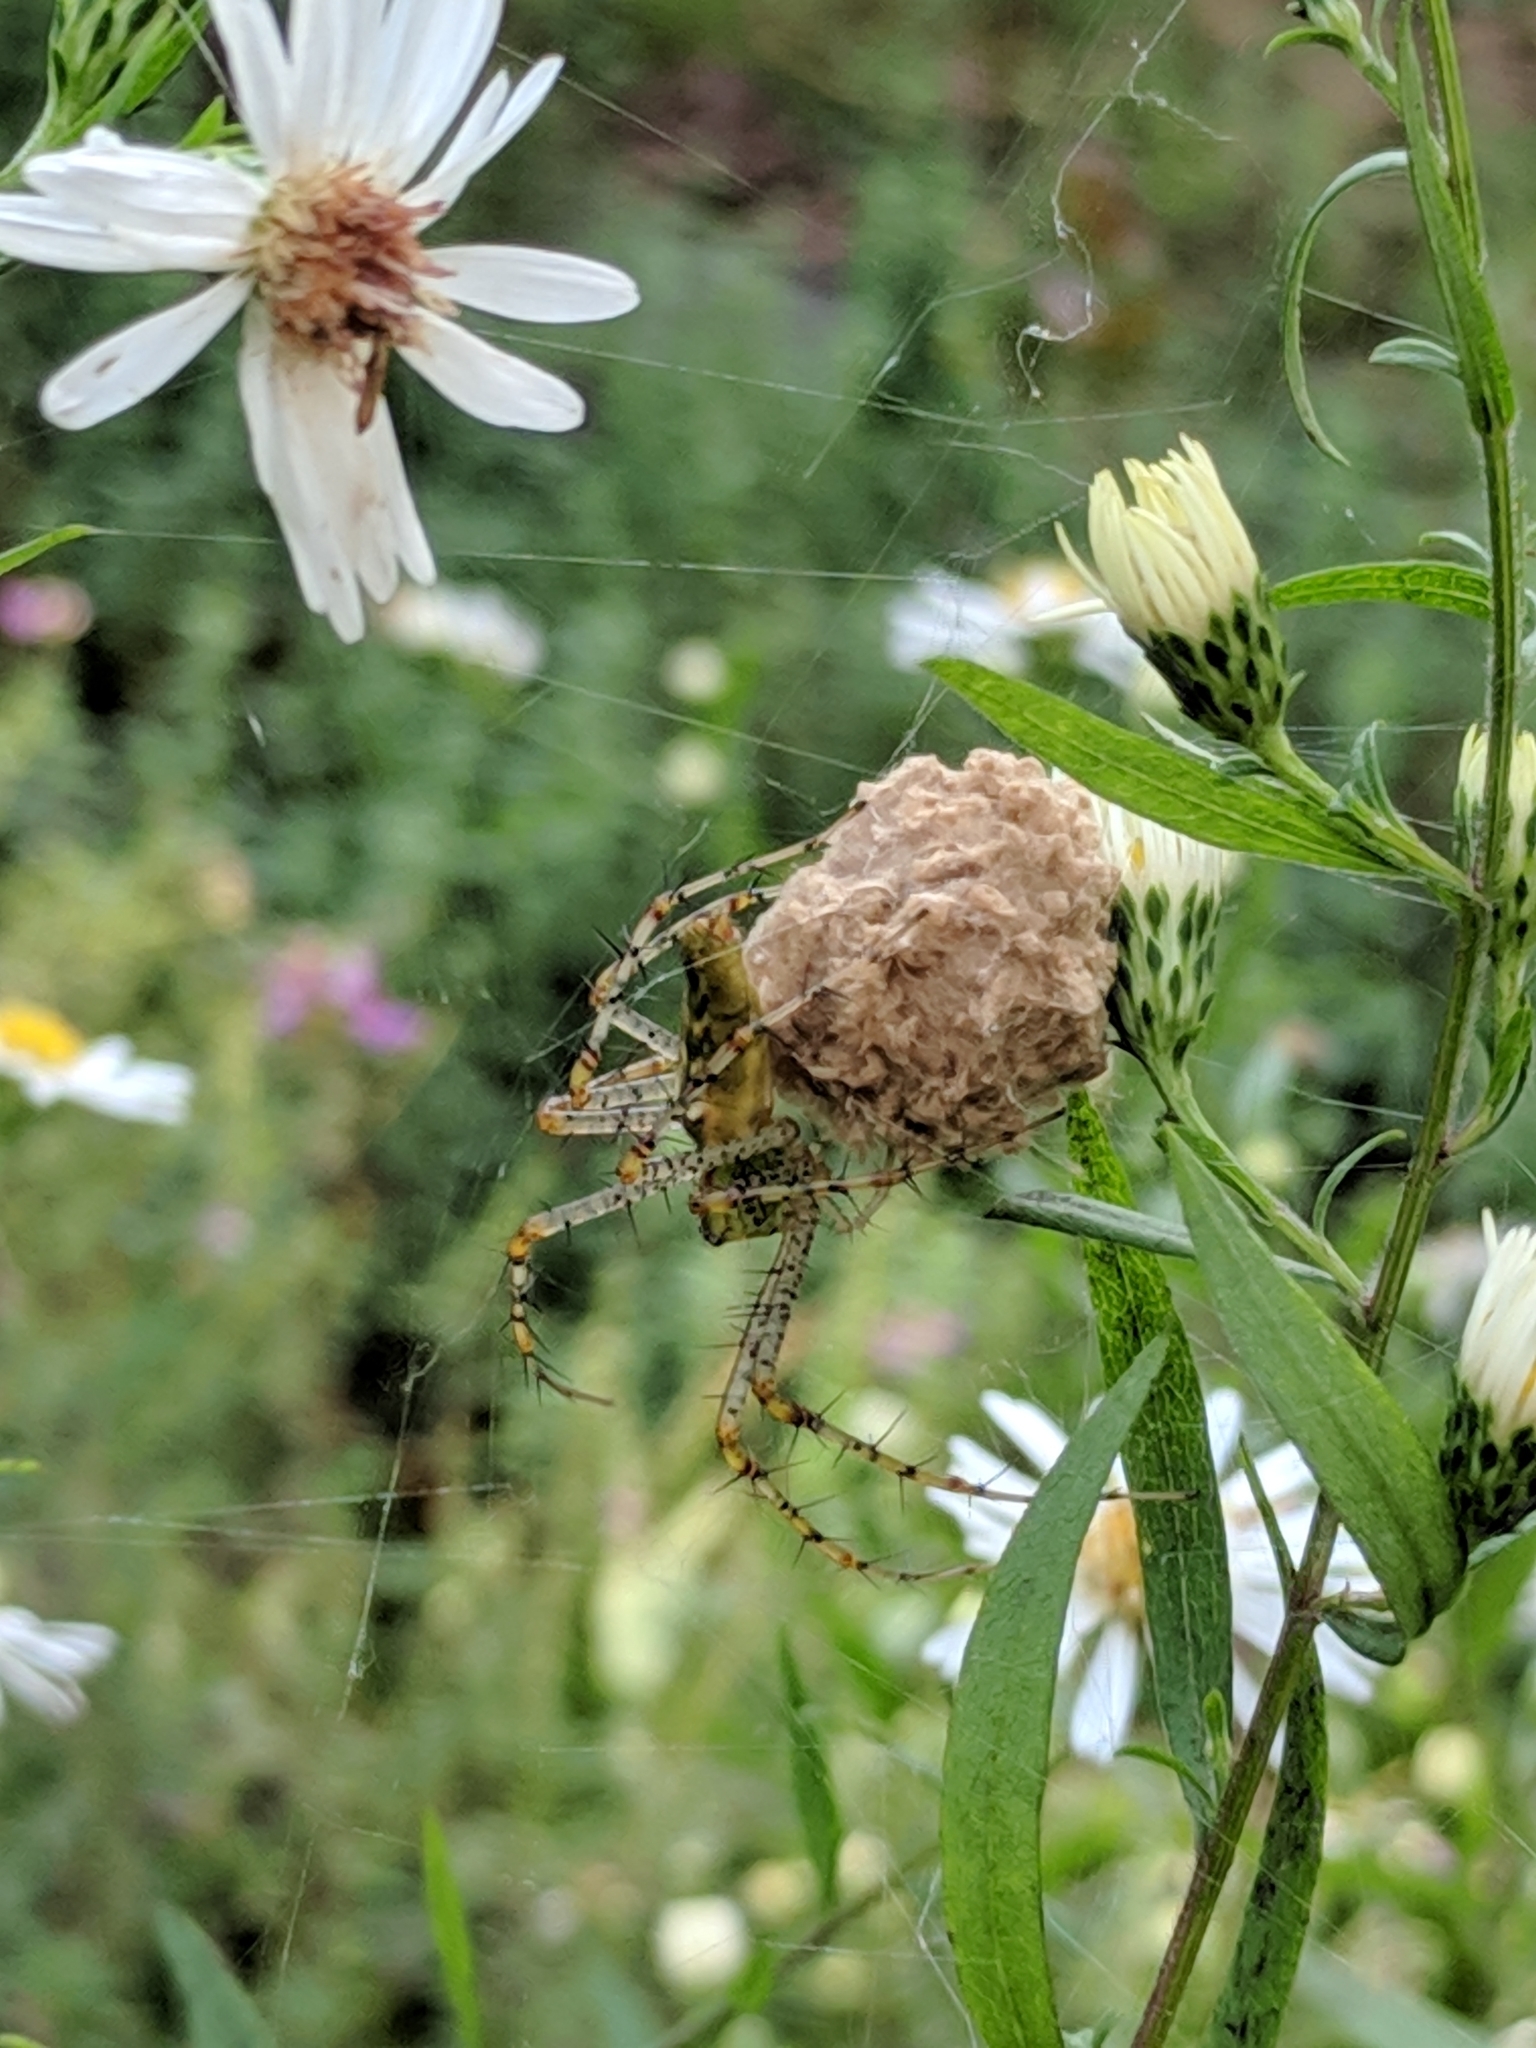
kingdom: Animalia
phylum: Arthropoda
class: Arachnida
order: Araneae
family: Oxyopidae
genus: Peucetia
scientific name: Peucetia viridans
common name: Lynx spiders
